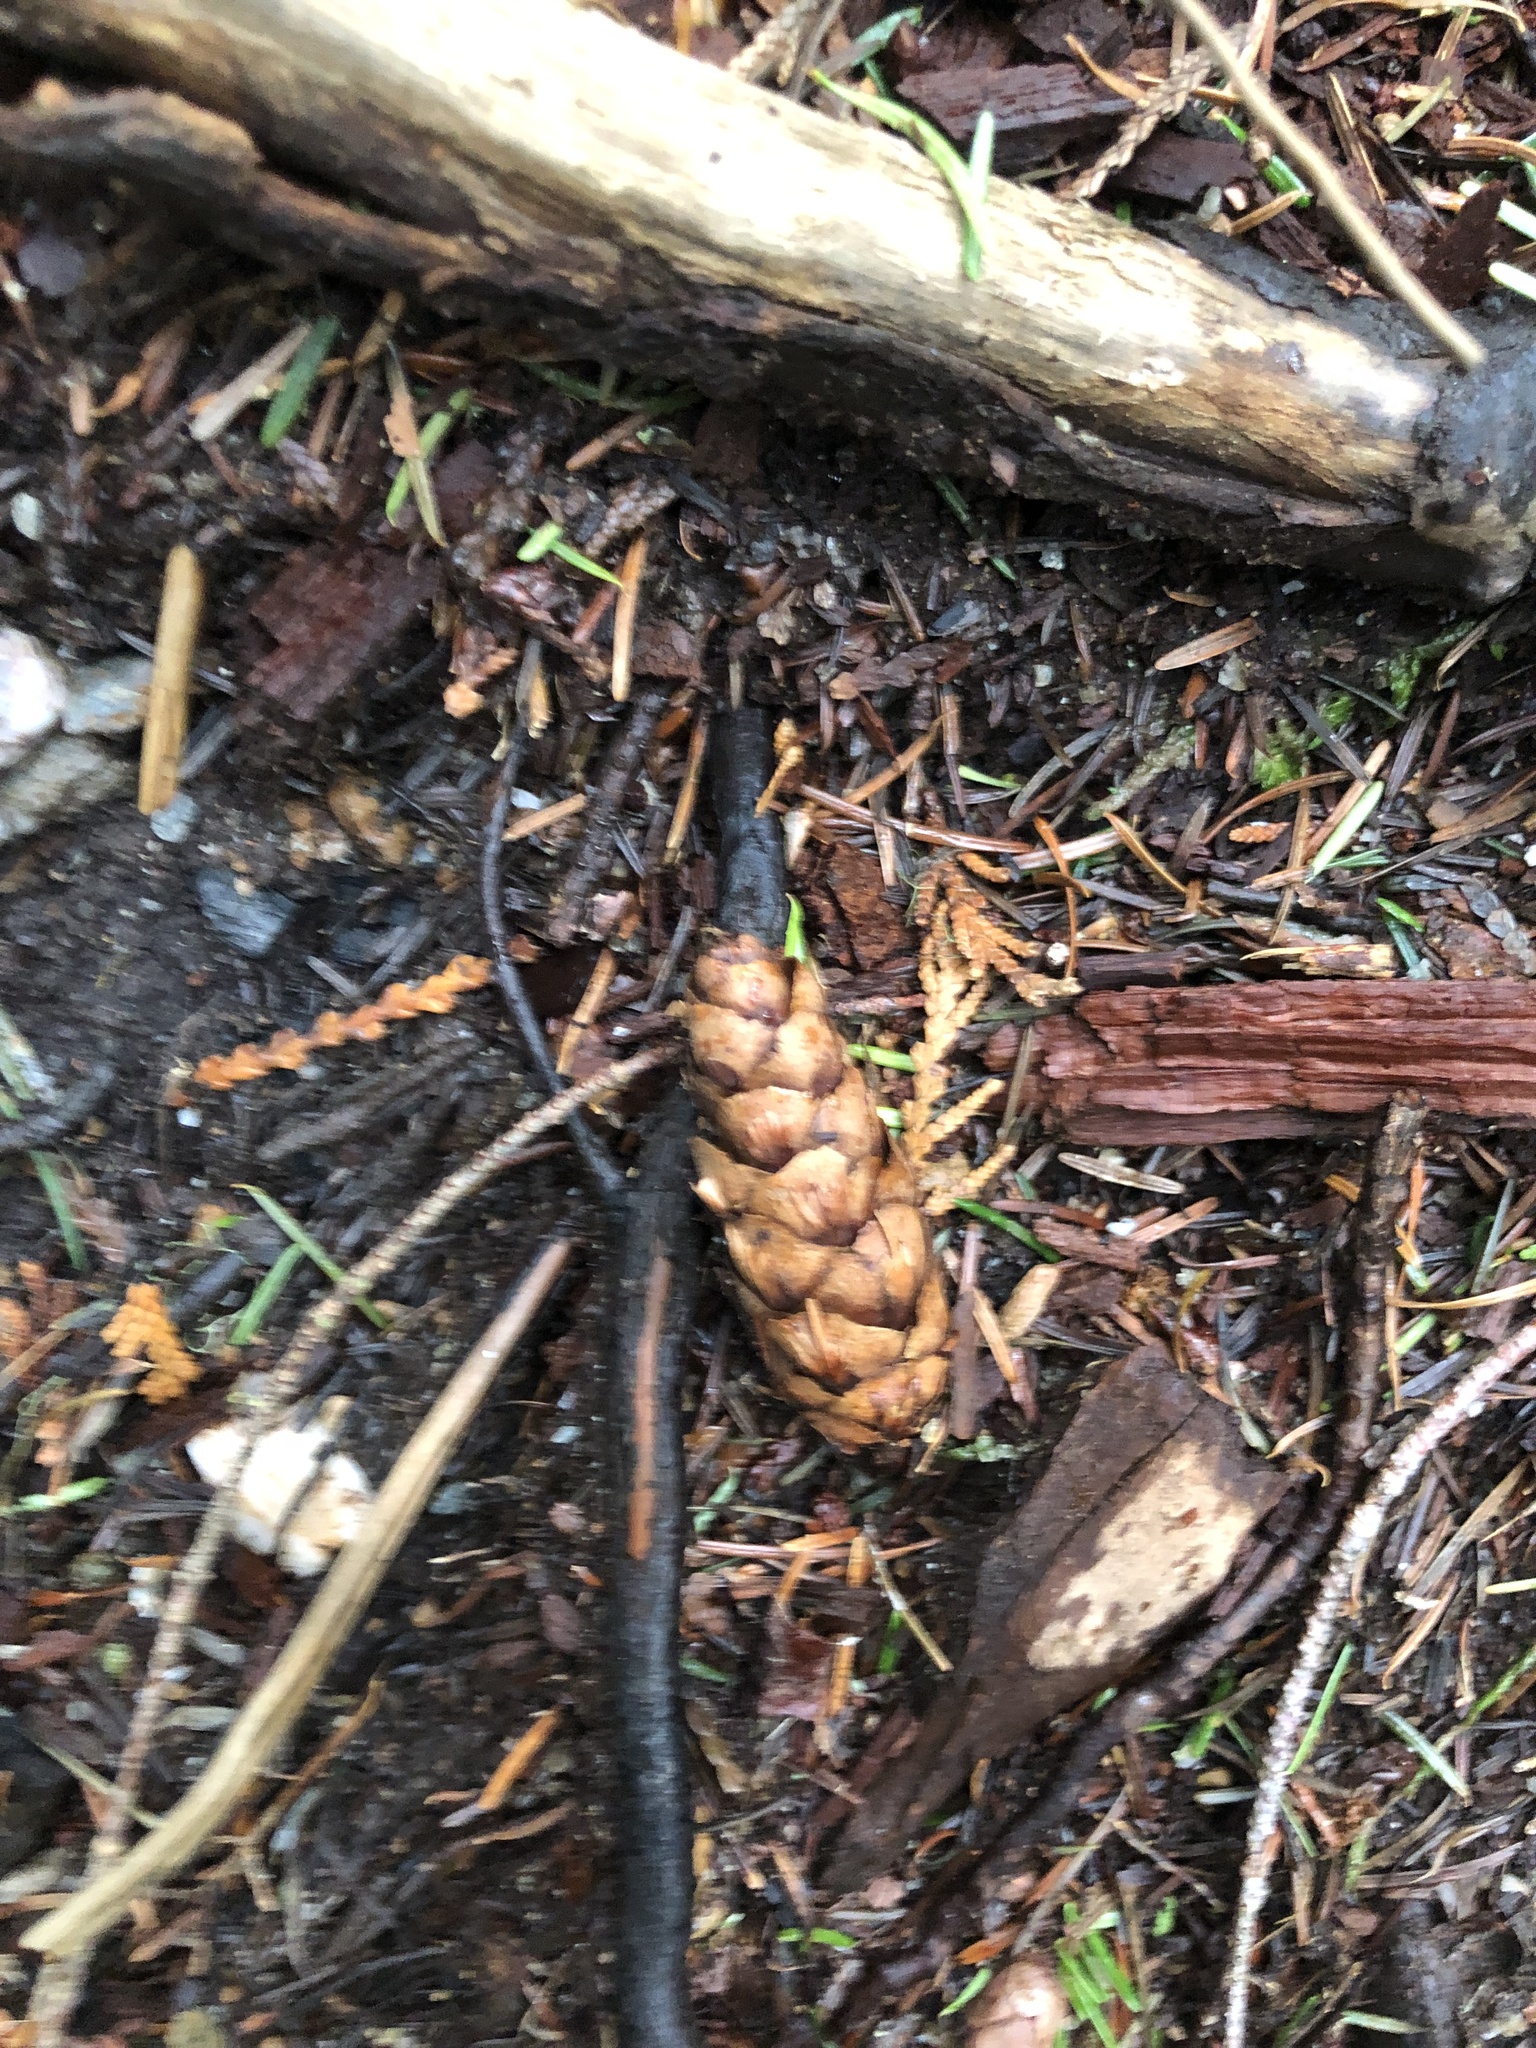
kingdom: Plantae
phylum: Tracheophyta
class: Pinopsida
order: Pinales
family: Pinaceae
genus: Pseudotsuga
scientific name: Pseudotsuga menziesii
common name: Douglas fir
